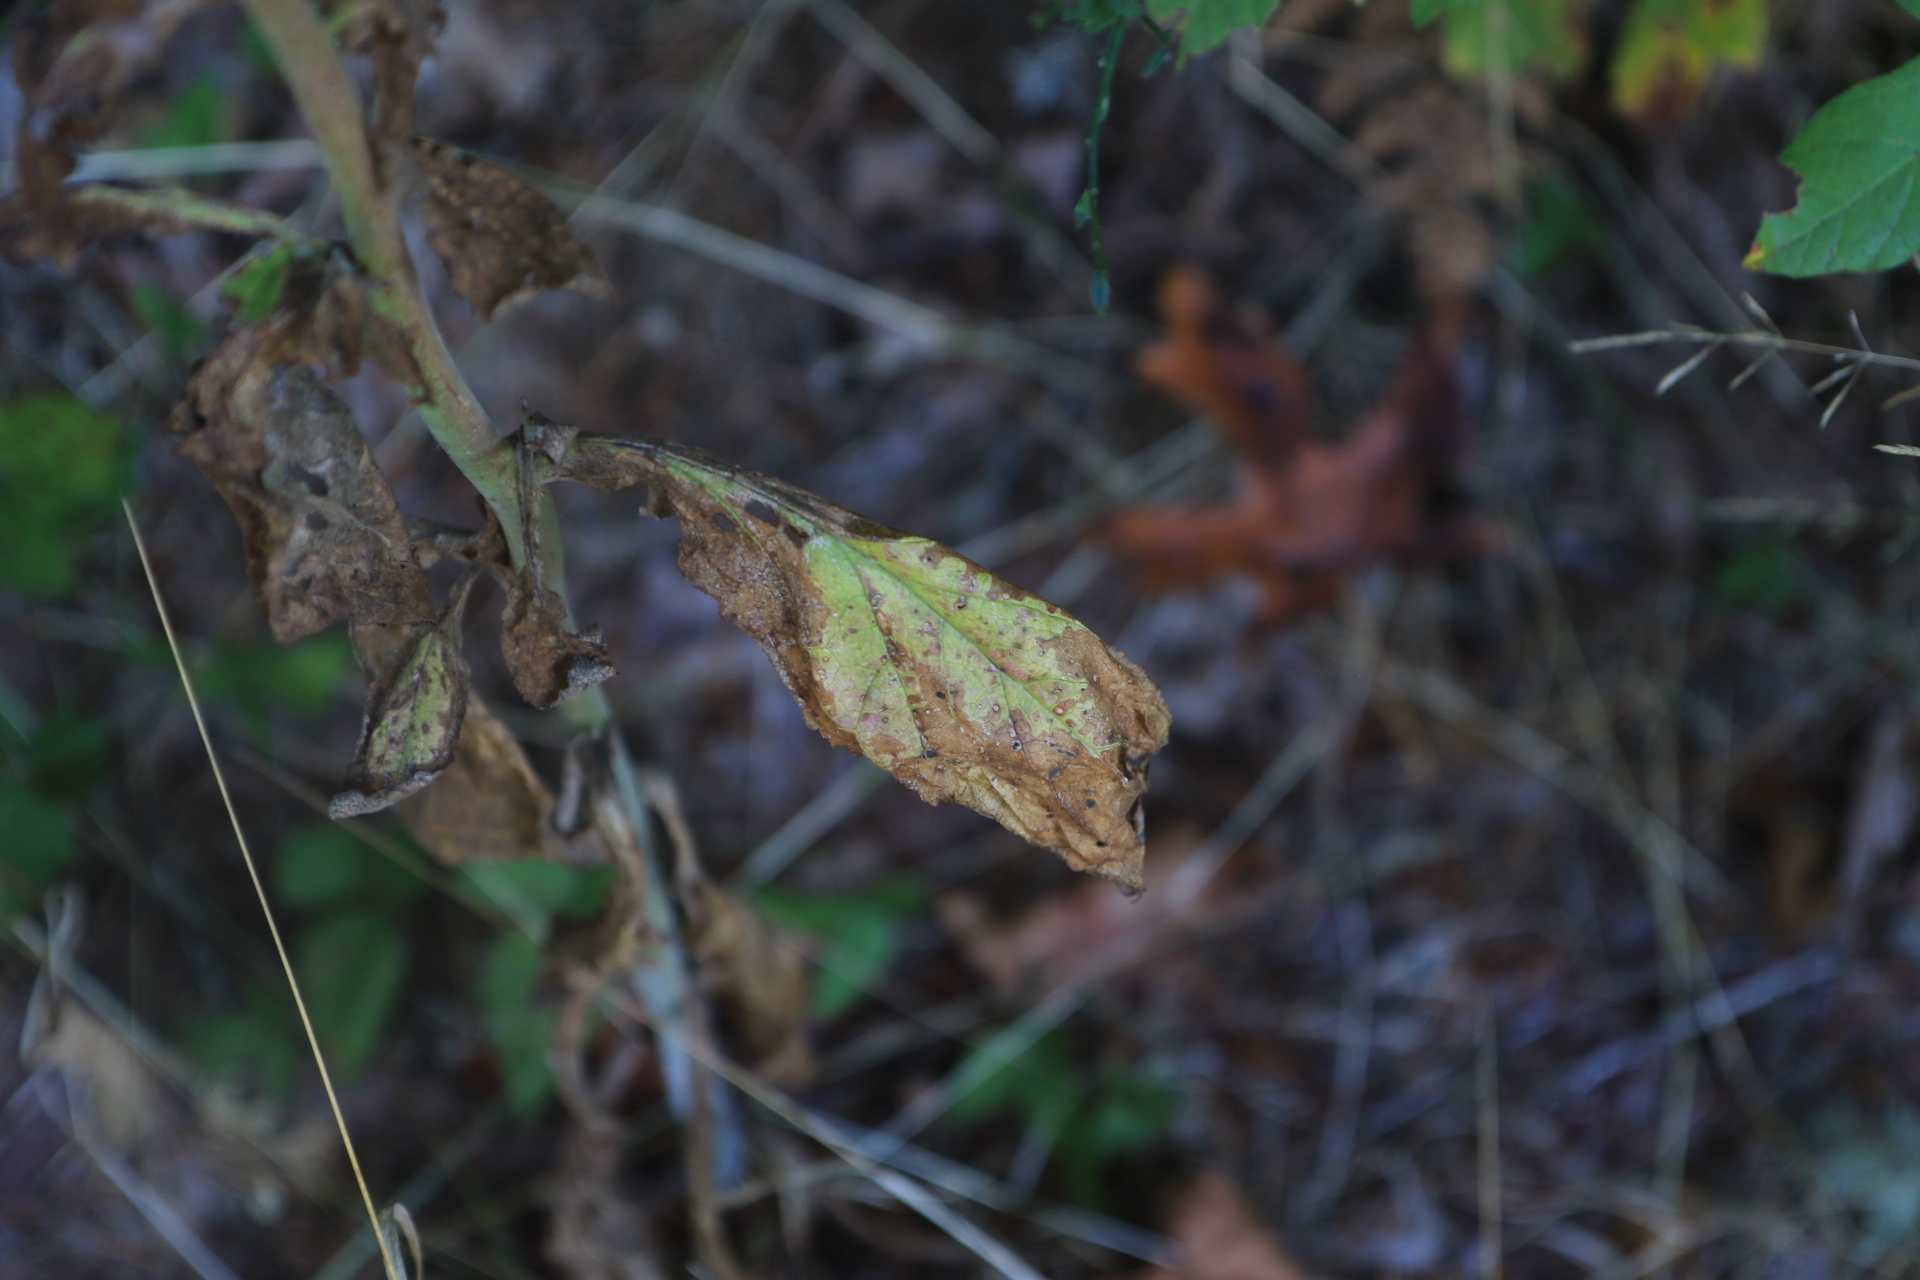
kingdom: Plantae
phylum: Tracheophyta
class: Magnoliopsida
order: Lamiales
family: Plantaginaceae
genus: Digitalis
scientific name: Digitalis purpurea
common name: Foxglove
